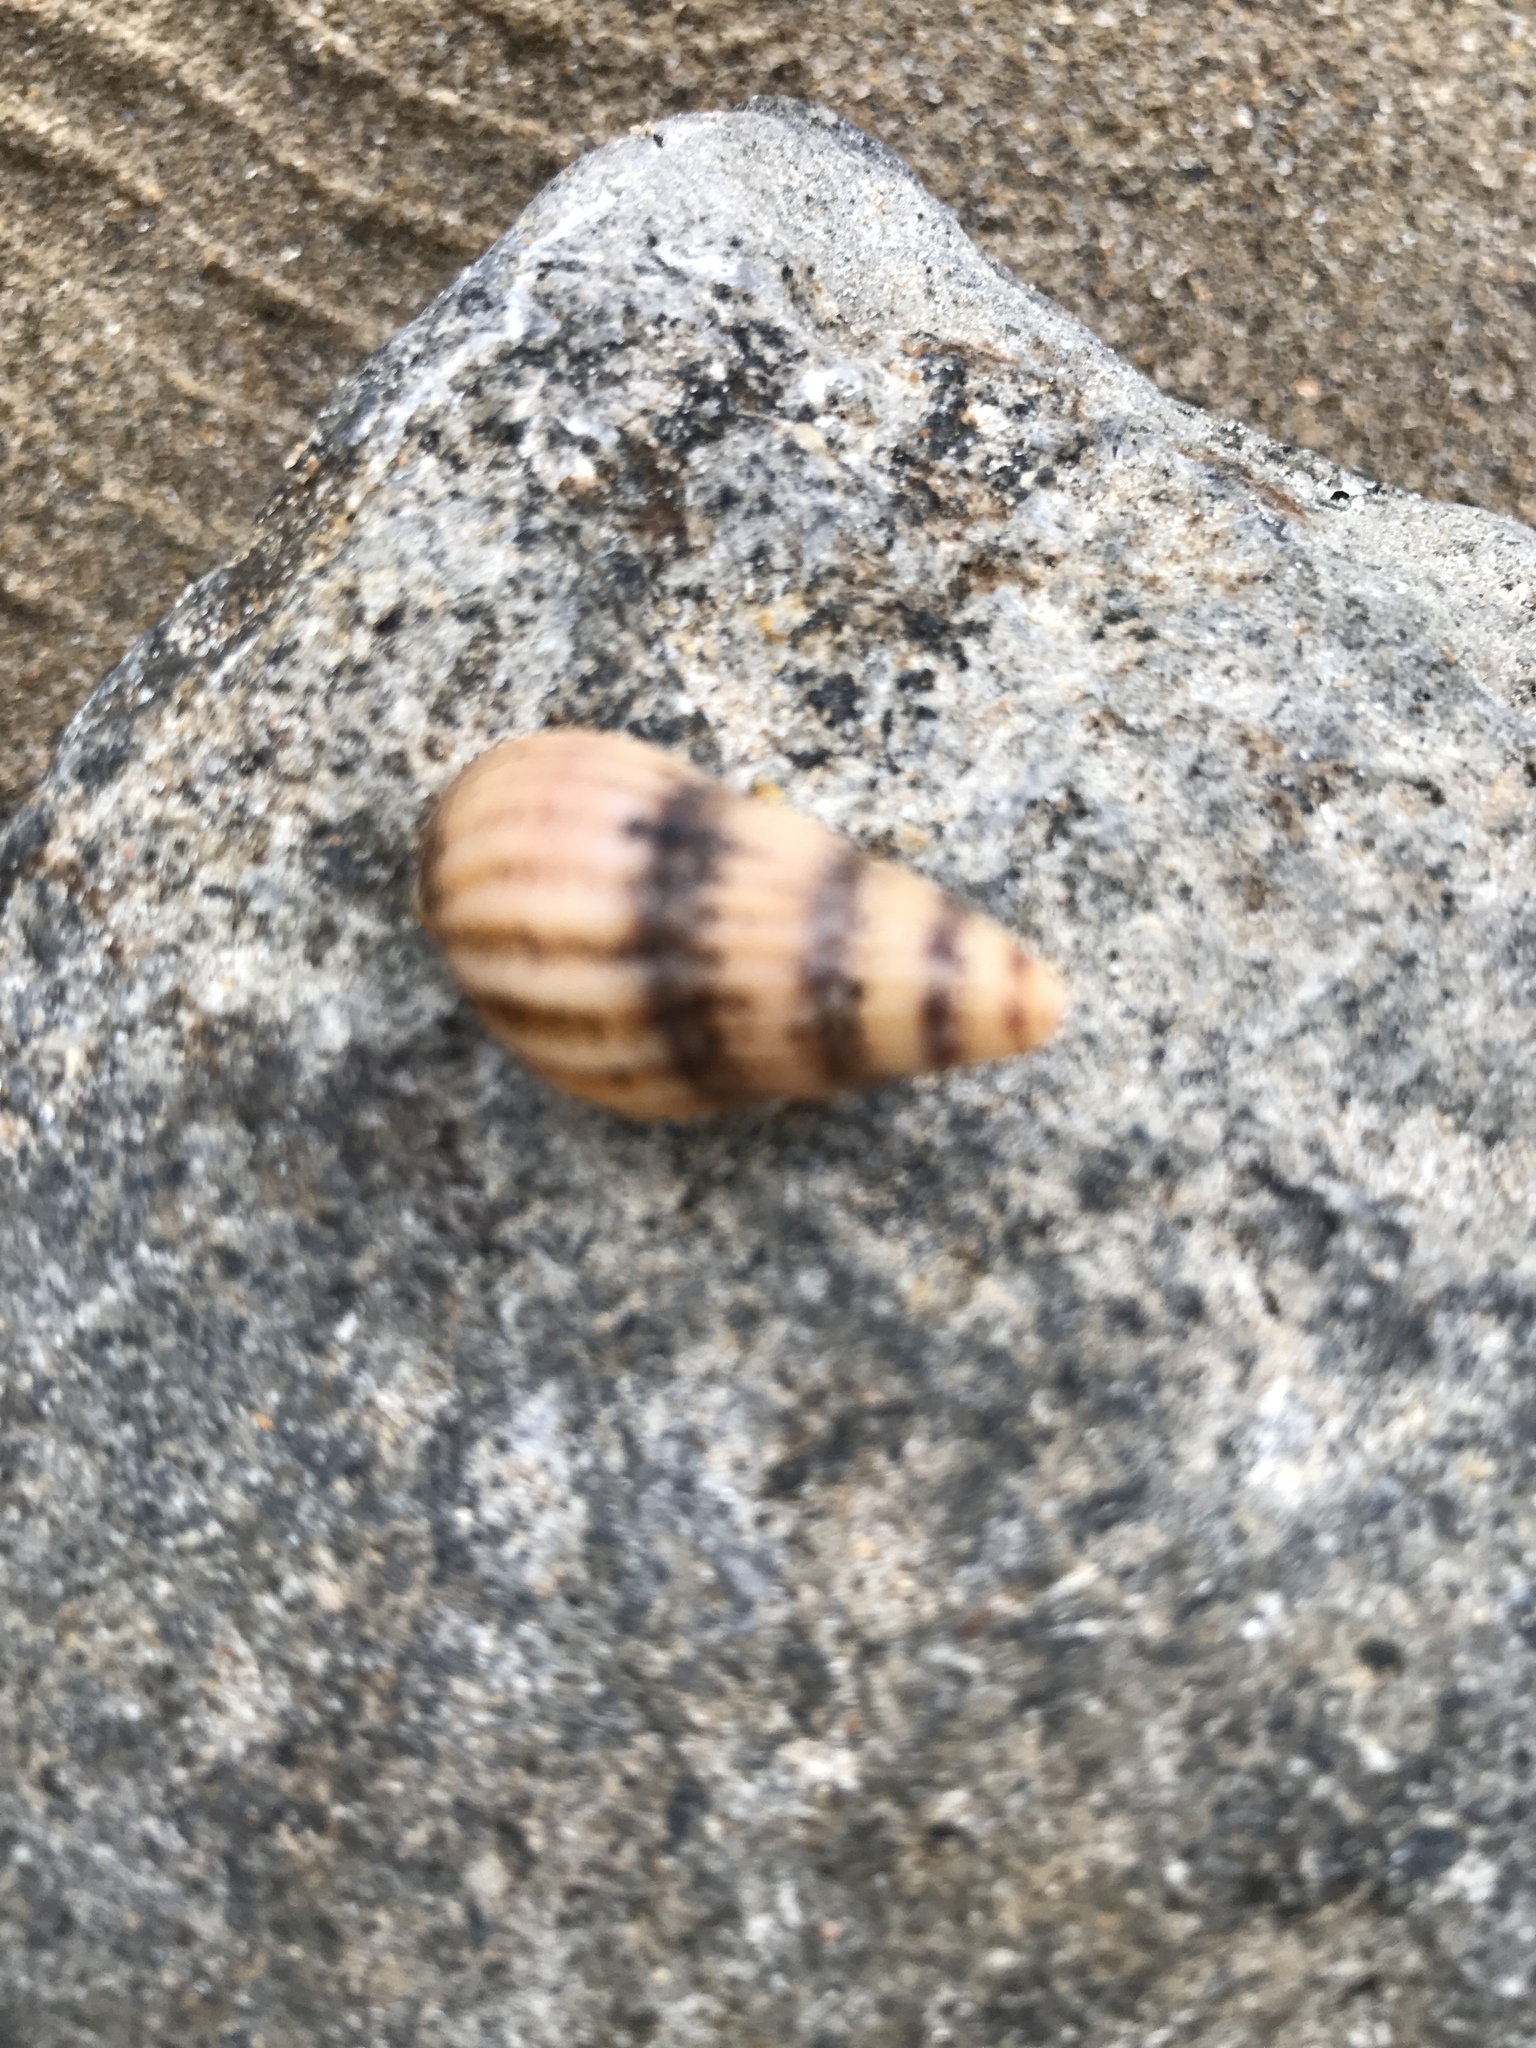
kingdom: Animalia
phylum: Mollusca
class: Gastropoda
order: Neogastropoda
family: Nassariidae
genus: Tritia
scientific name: Tritia reticulata
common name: Netted dog whelk
